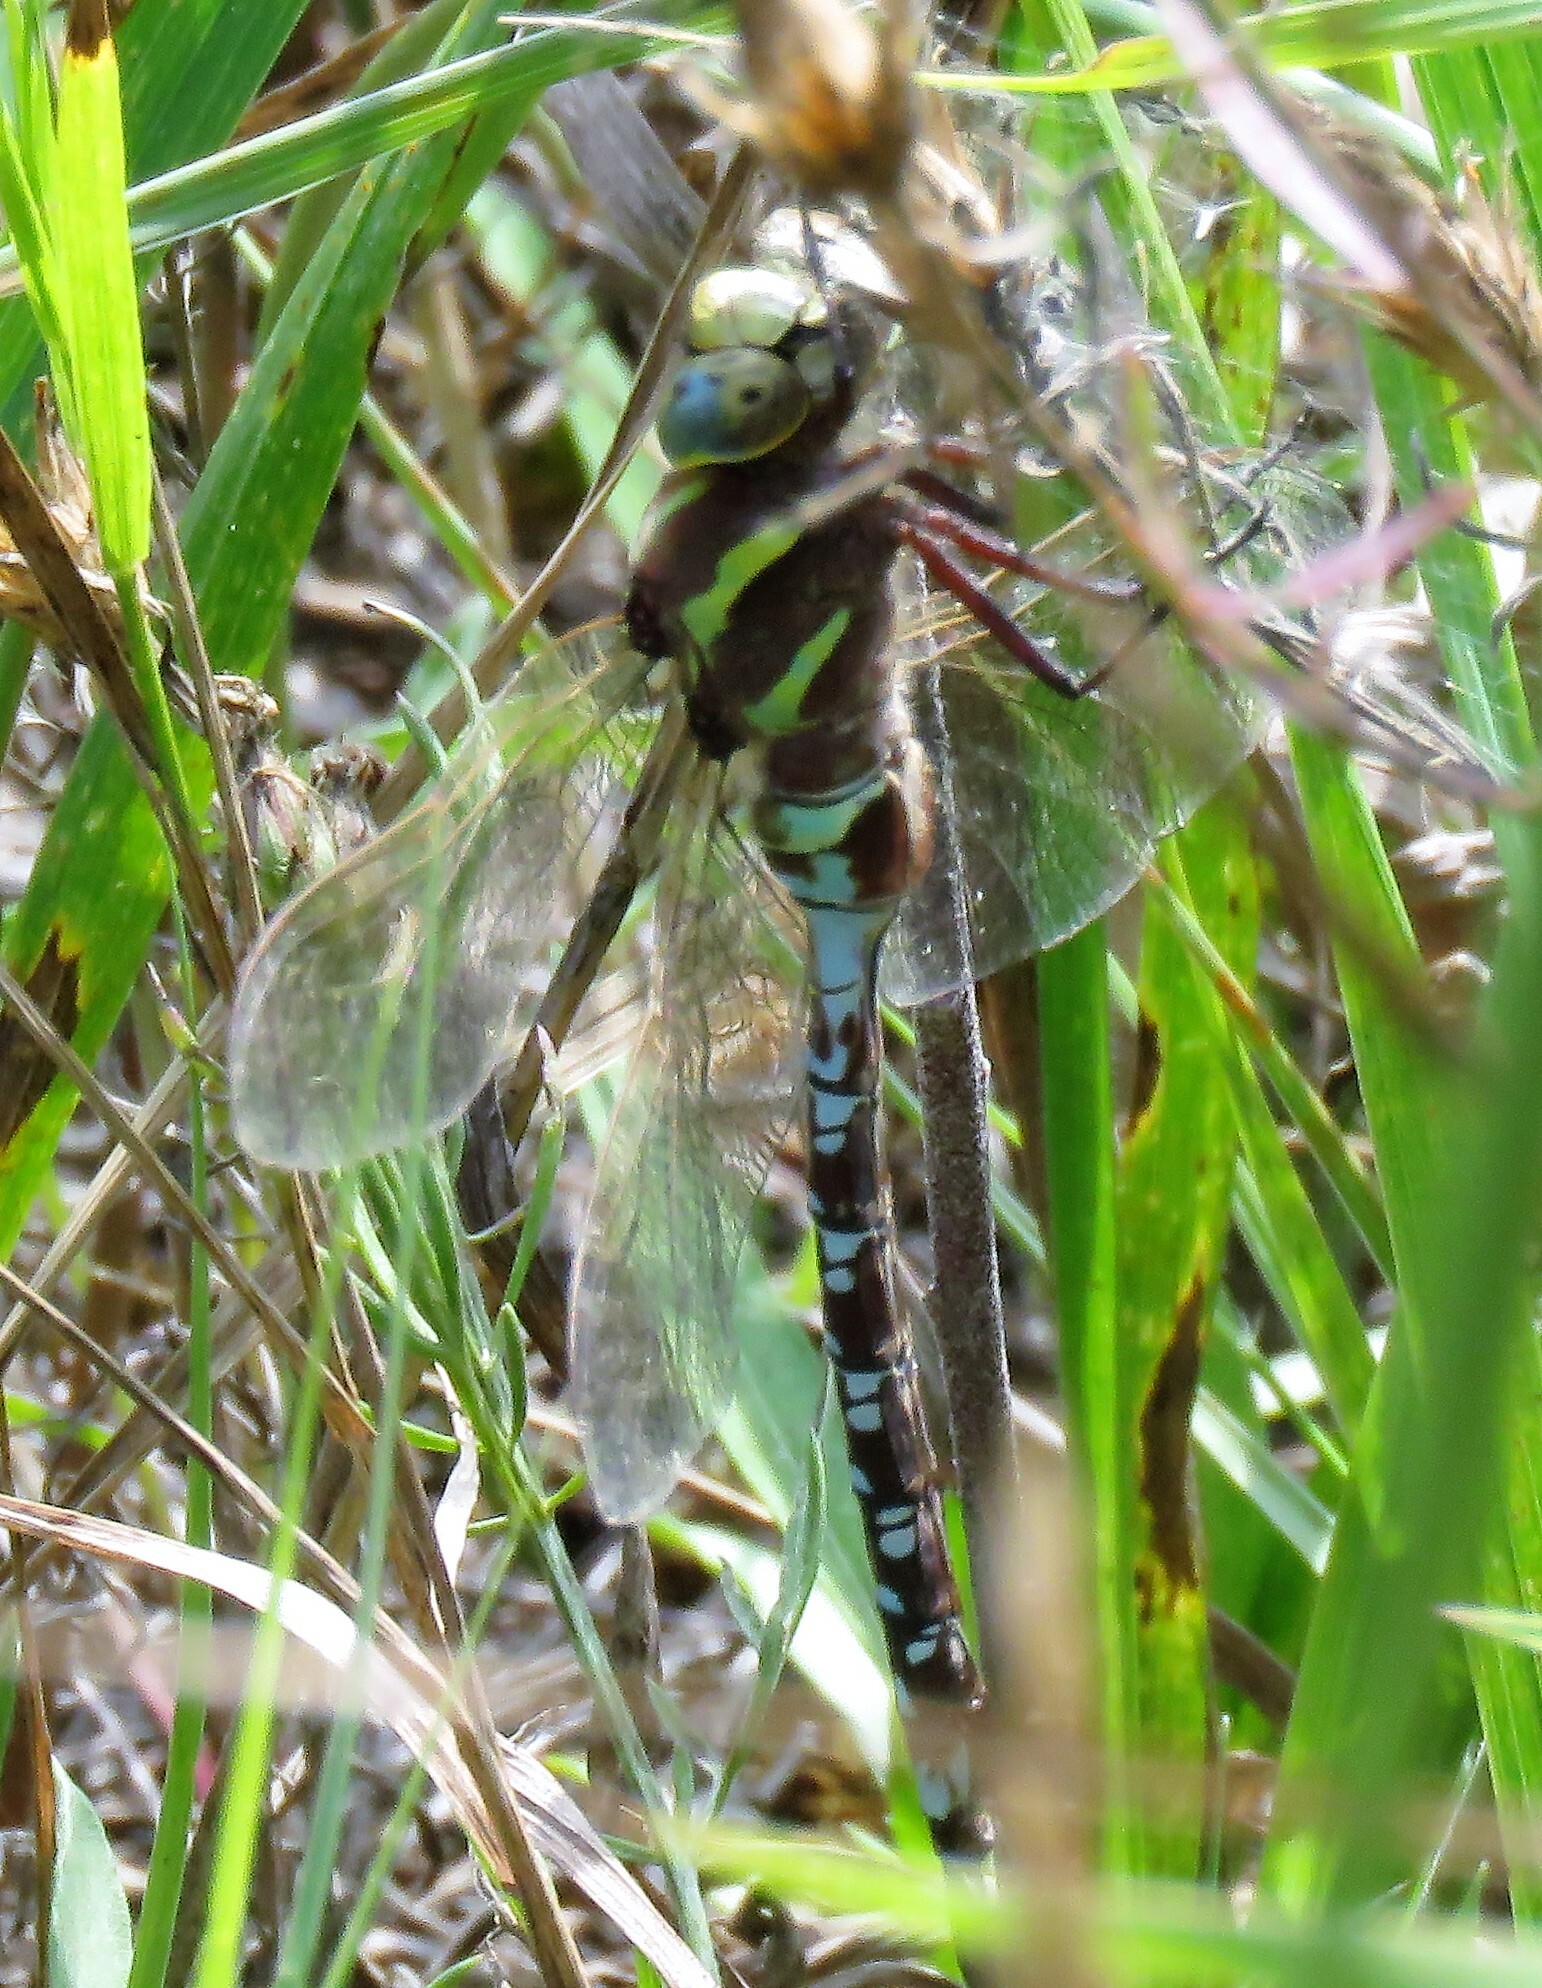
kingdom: Animalia
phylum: Arthropoda
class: Insecta
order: Odonata
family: Aeshnidae
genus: Aeshna
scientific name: Aeshna constricta
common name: Lance-tipped darner
